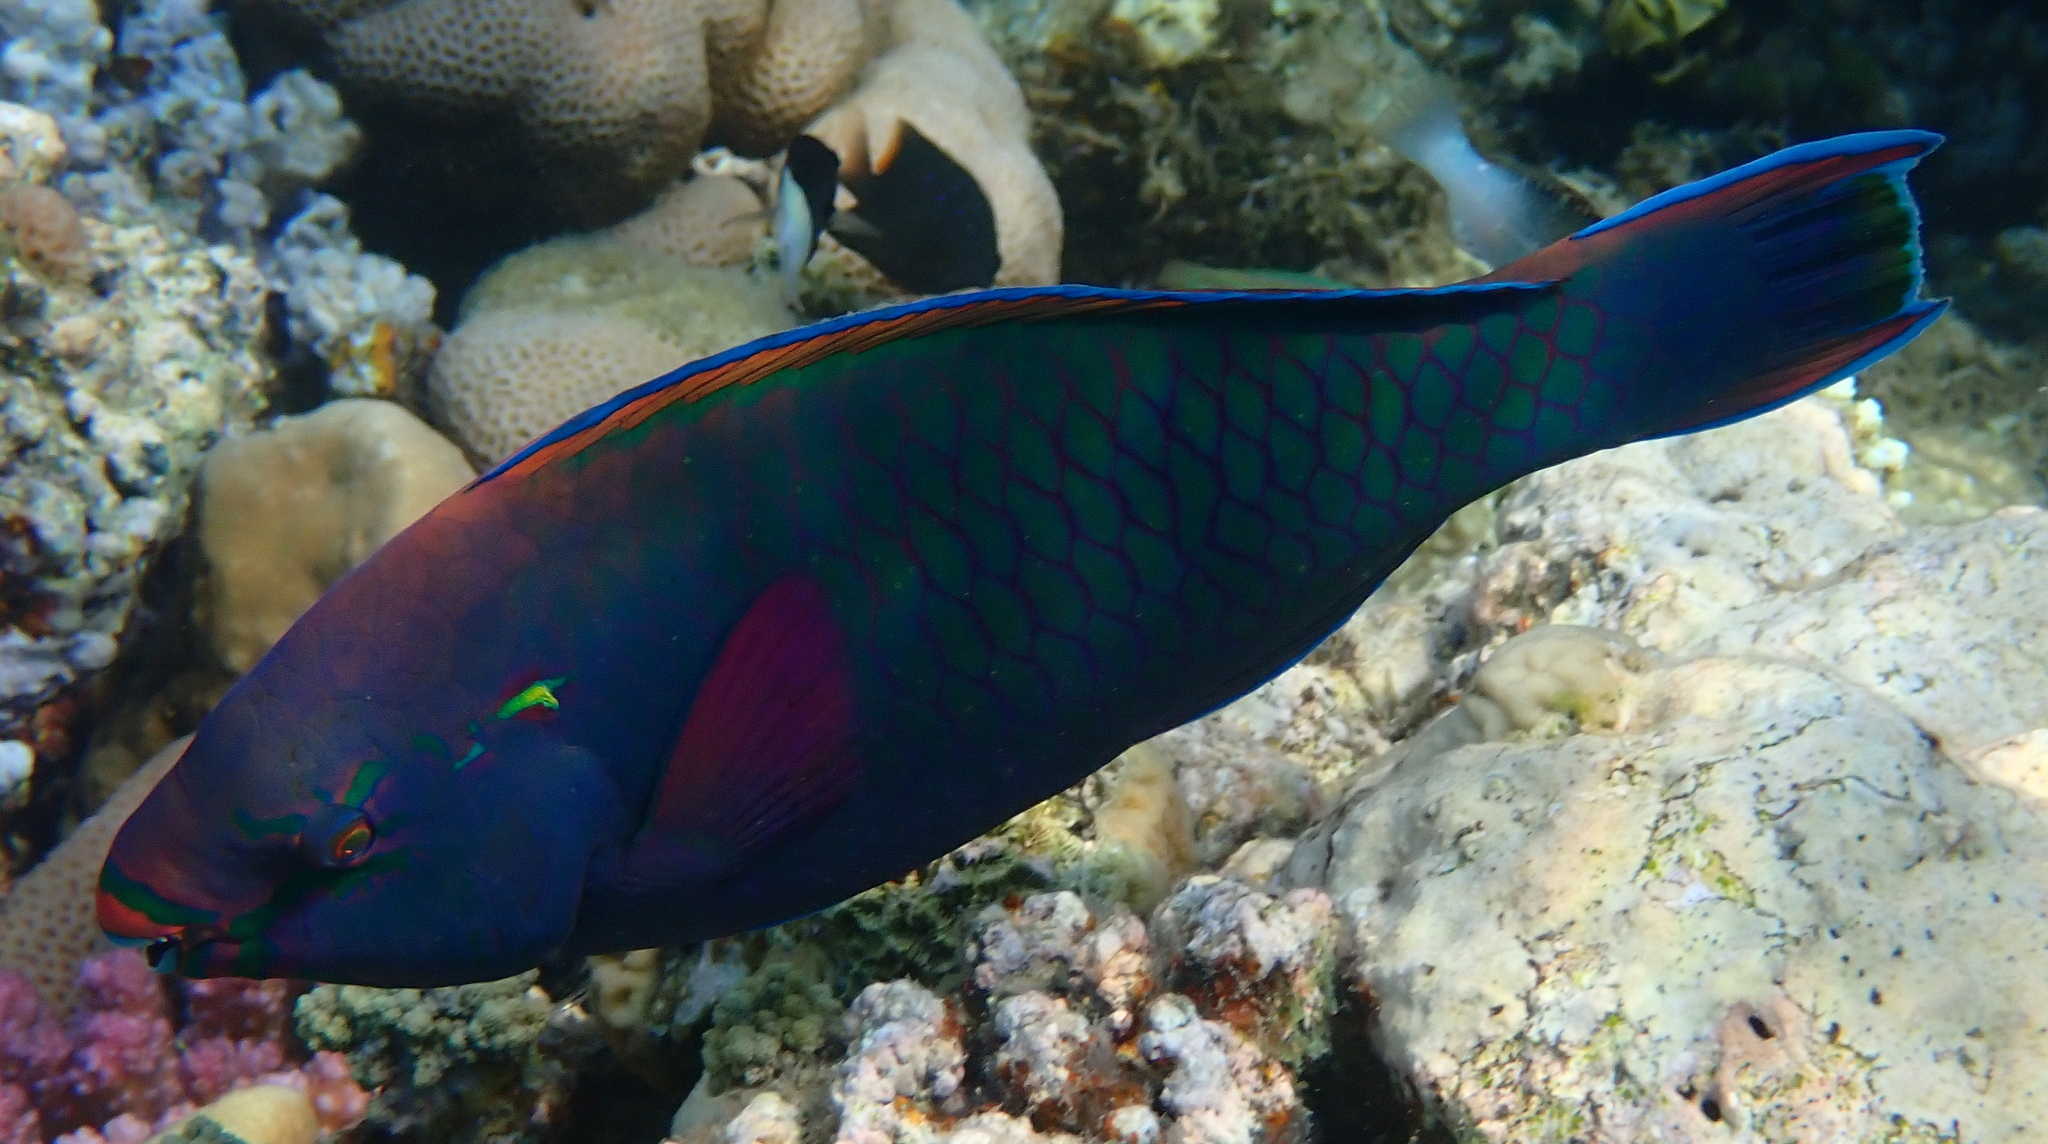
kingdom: Animalia
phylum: Chordata
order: Perciformes
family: Scaridae
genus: Scarus
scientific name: Scarus niger
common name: Dusky parrotfish
